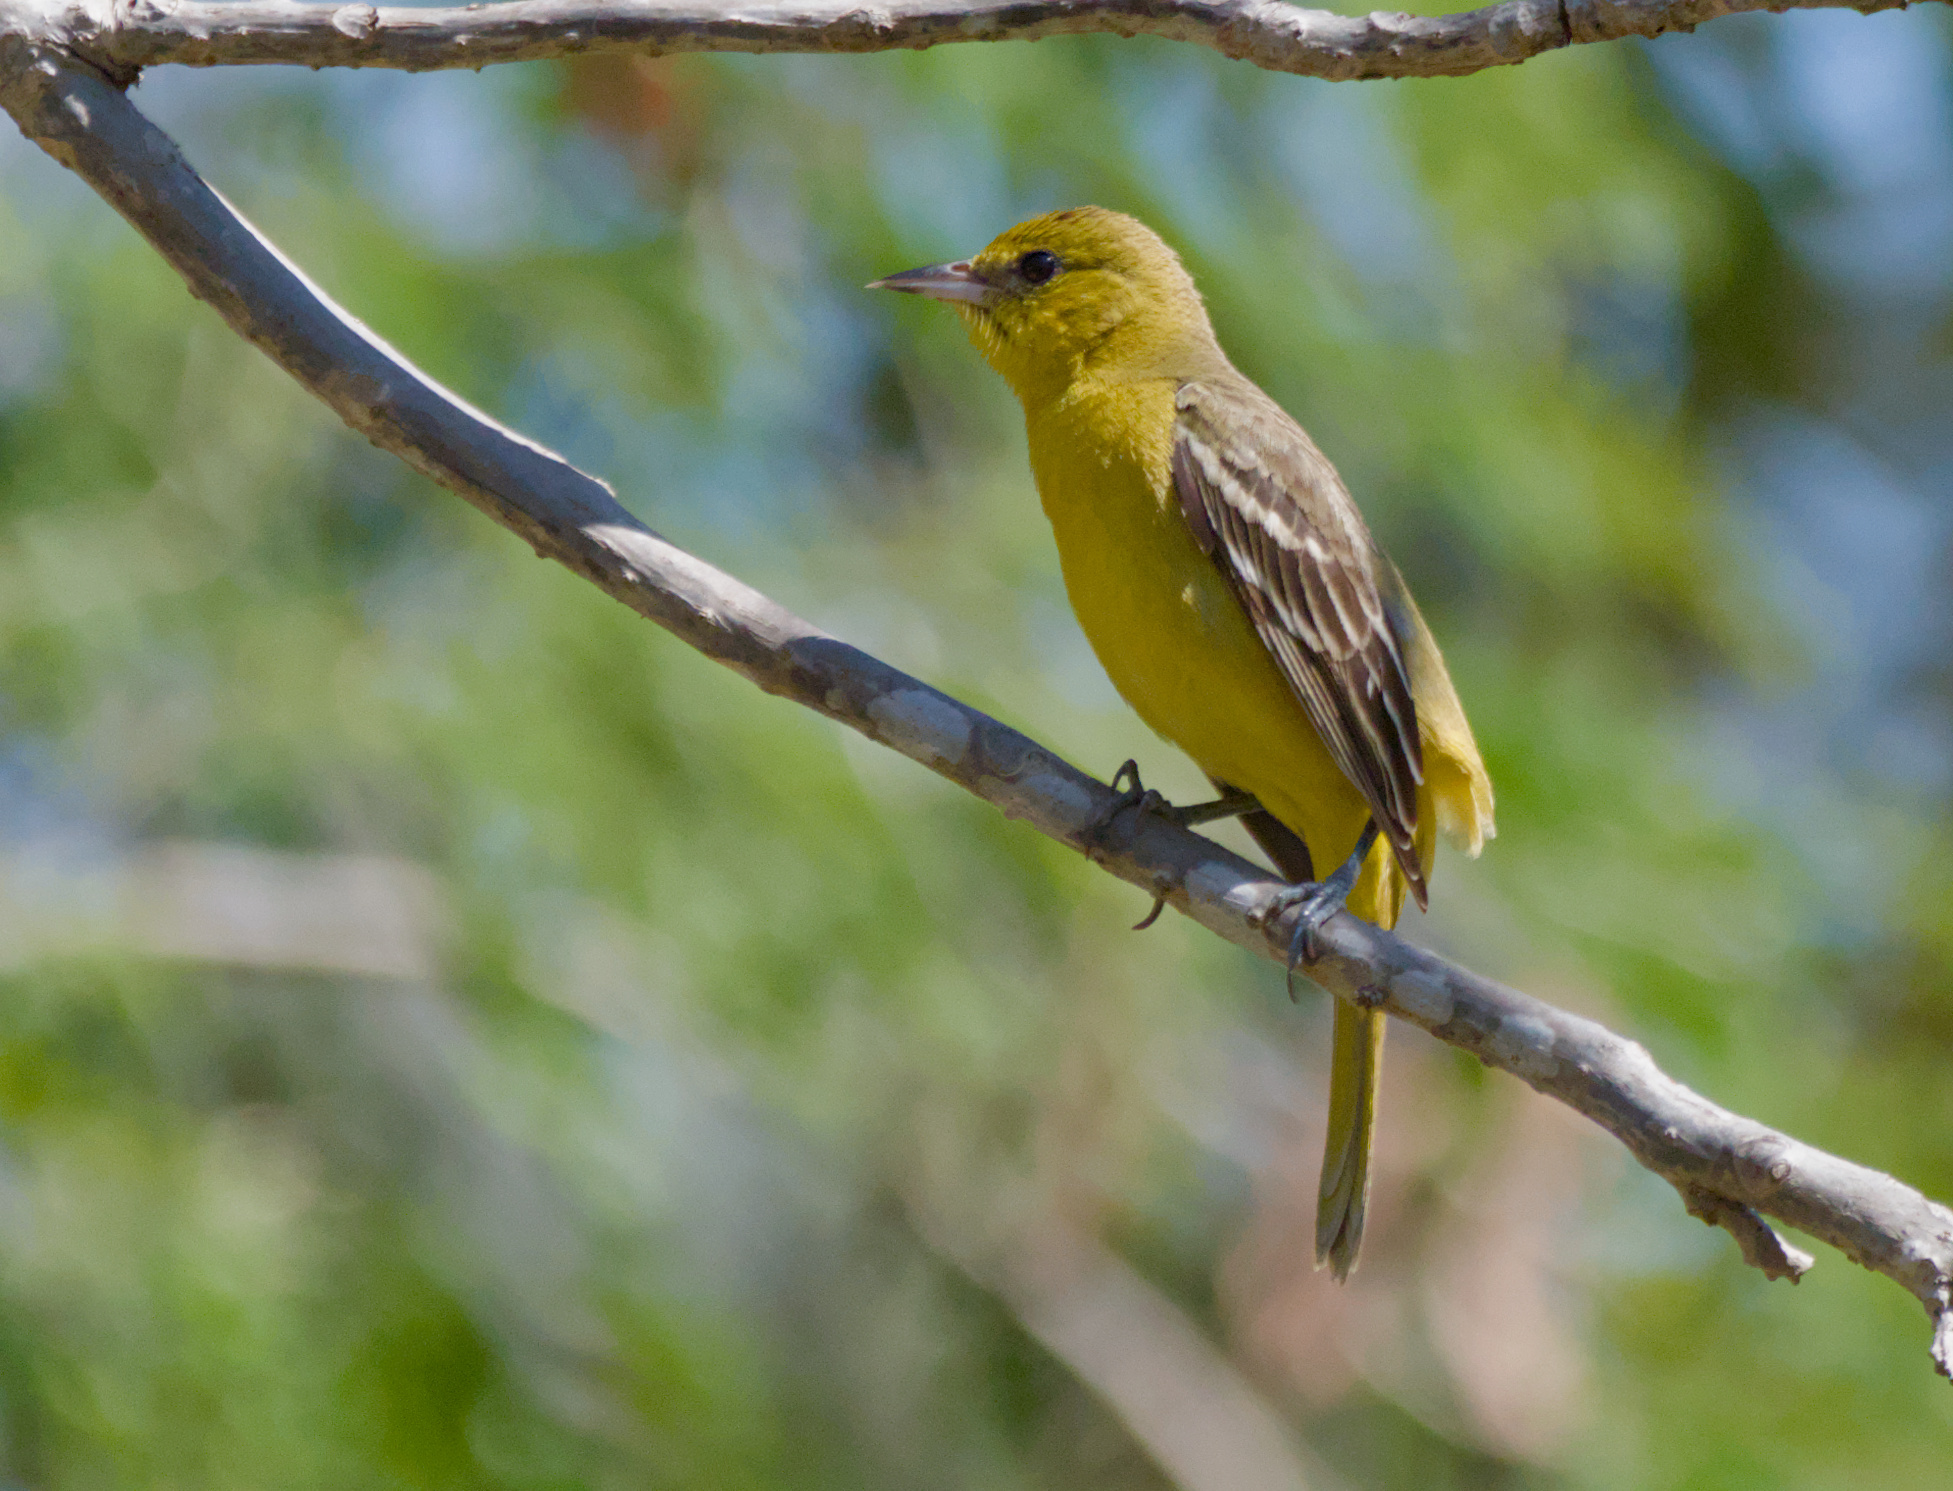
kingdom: Animalia
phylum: Chordata
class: Aves
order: Passeriformes
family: Icteridae
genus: Icterus
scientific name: Icterus spurius
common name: Orchard oriole
